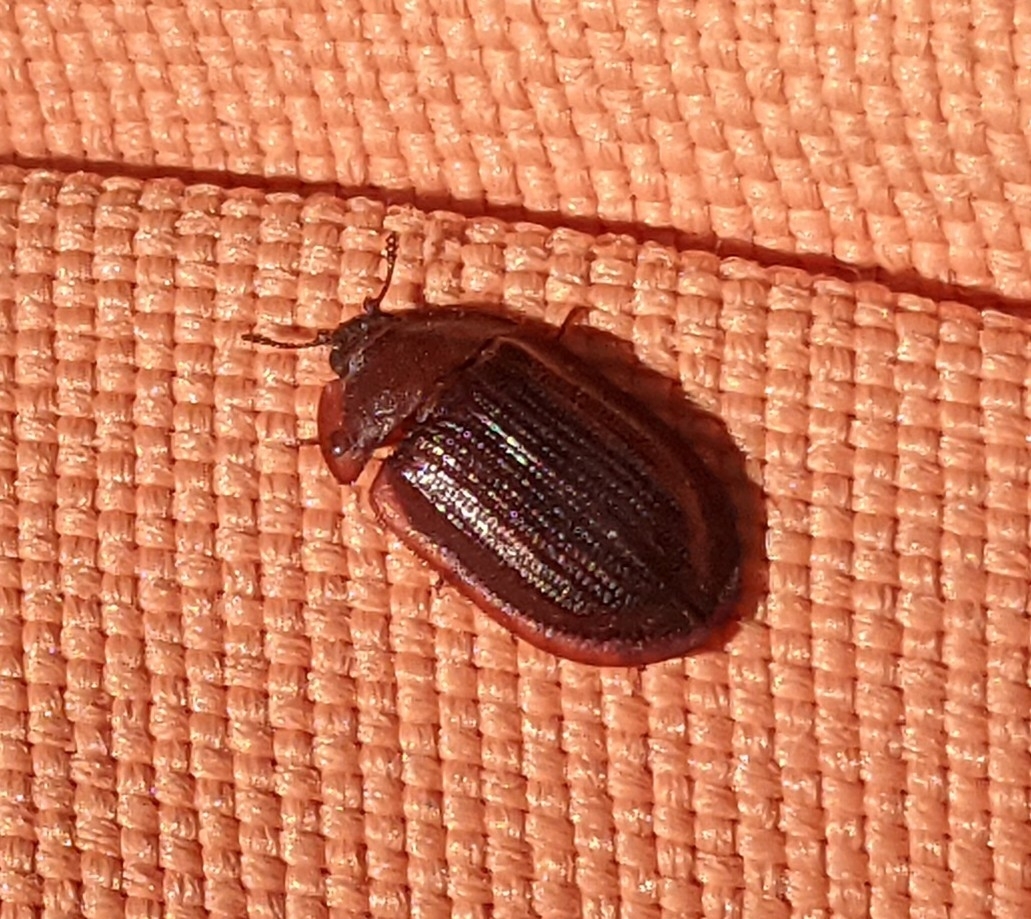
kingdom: Animalia
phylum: Arthropoda
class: Insecta
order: Coleoptera
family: Trogossitidae
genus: Peltis
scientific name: Peltis ferruginea
